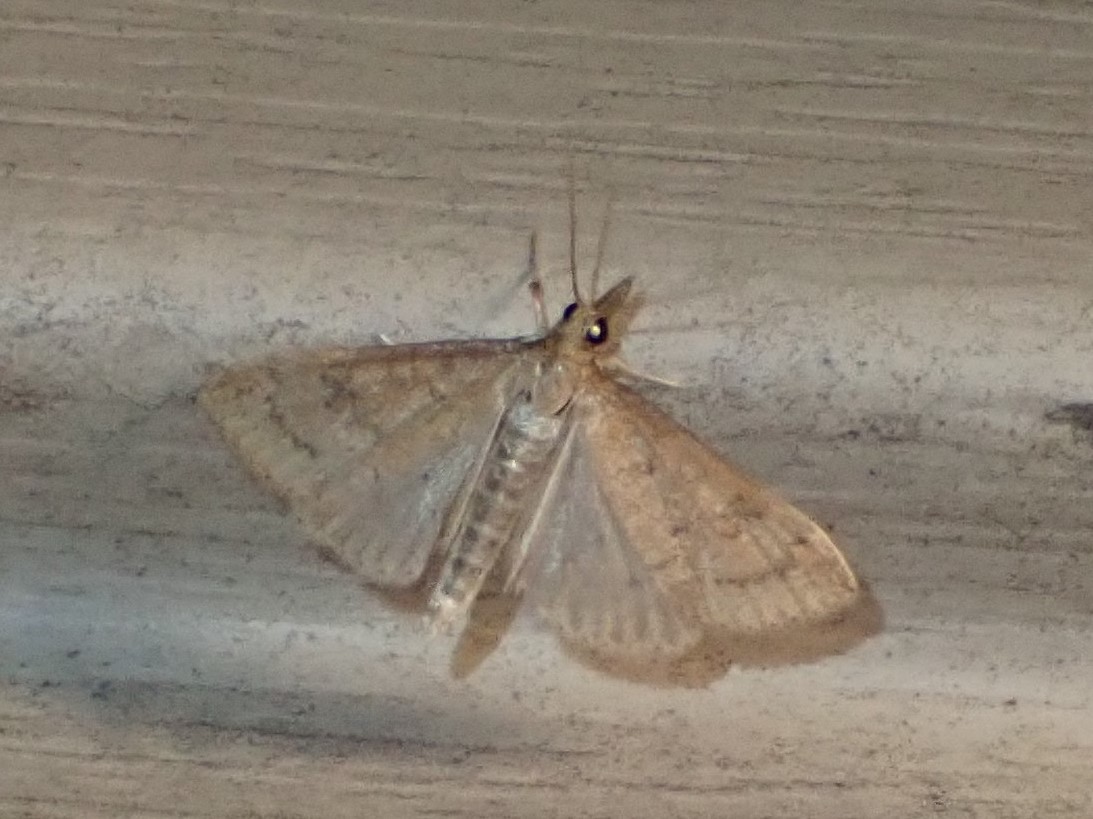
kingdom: Animalia
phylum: Arthropoda
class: Insecta
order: Lepidoptera
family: Crambidae
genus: Udea
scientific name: Udea rubigalis
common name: Celery leaftier moth
